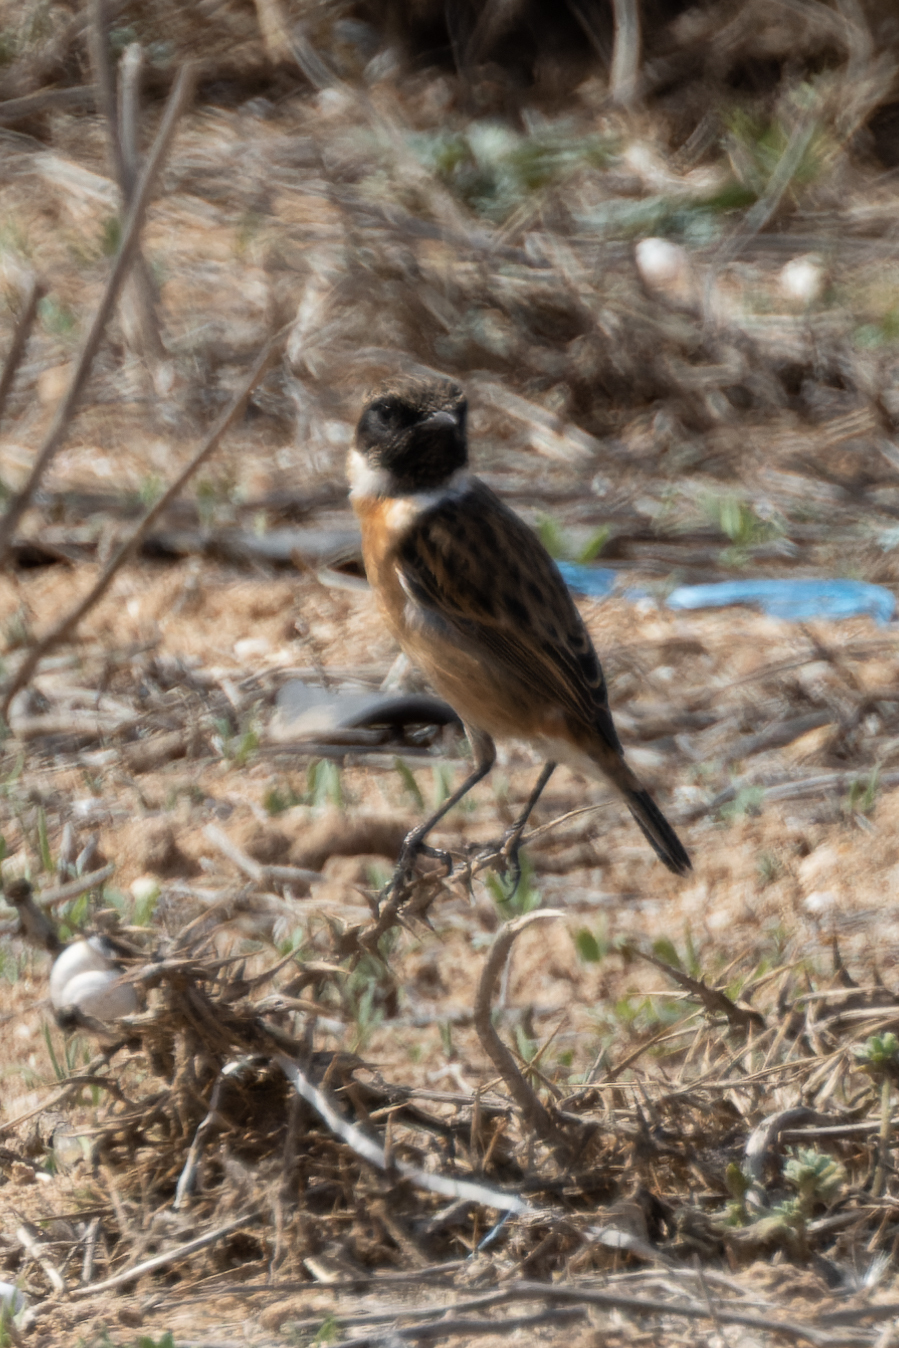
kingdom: Animalia
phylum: Chordata
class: Aves
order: Passeriformes
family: Muscicapidae
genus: Saxicola
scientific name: Saxicola rubicola
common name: European stonechat
